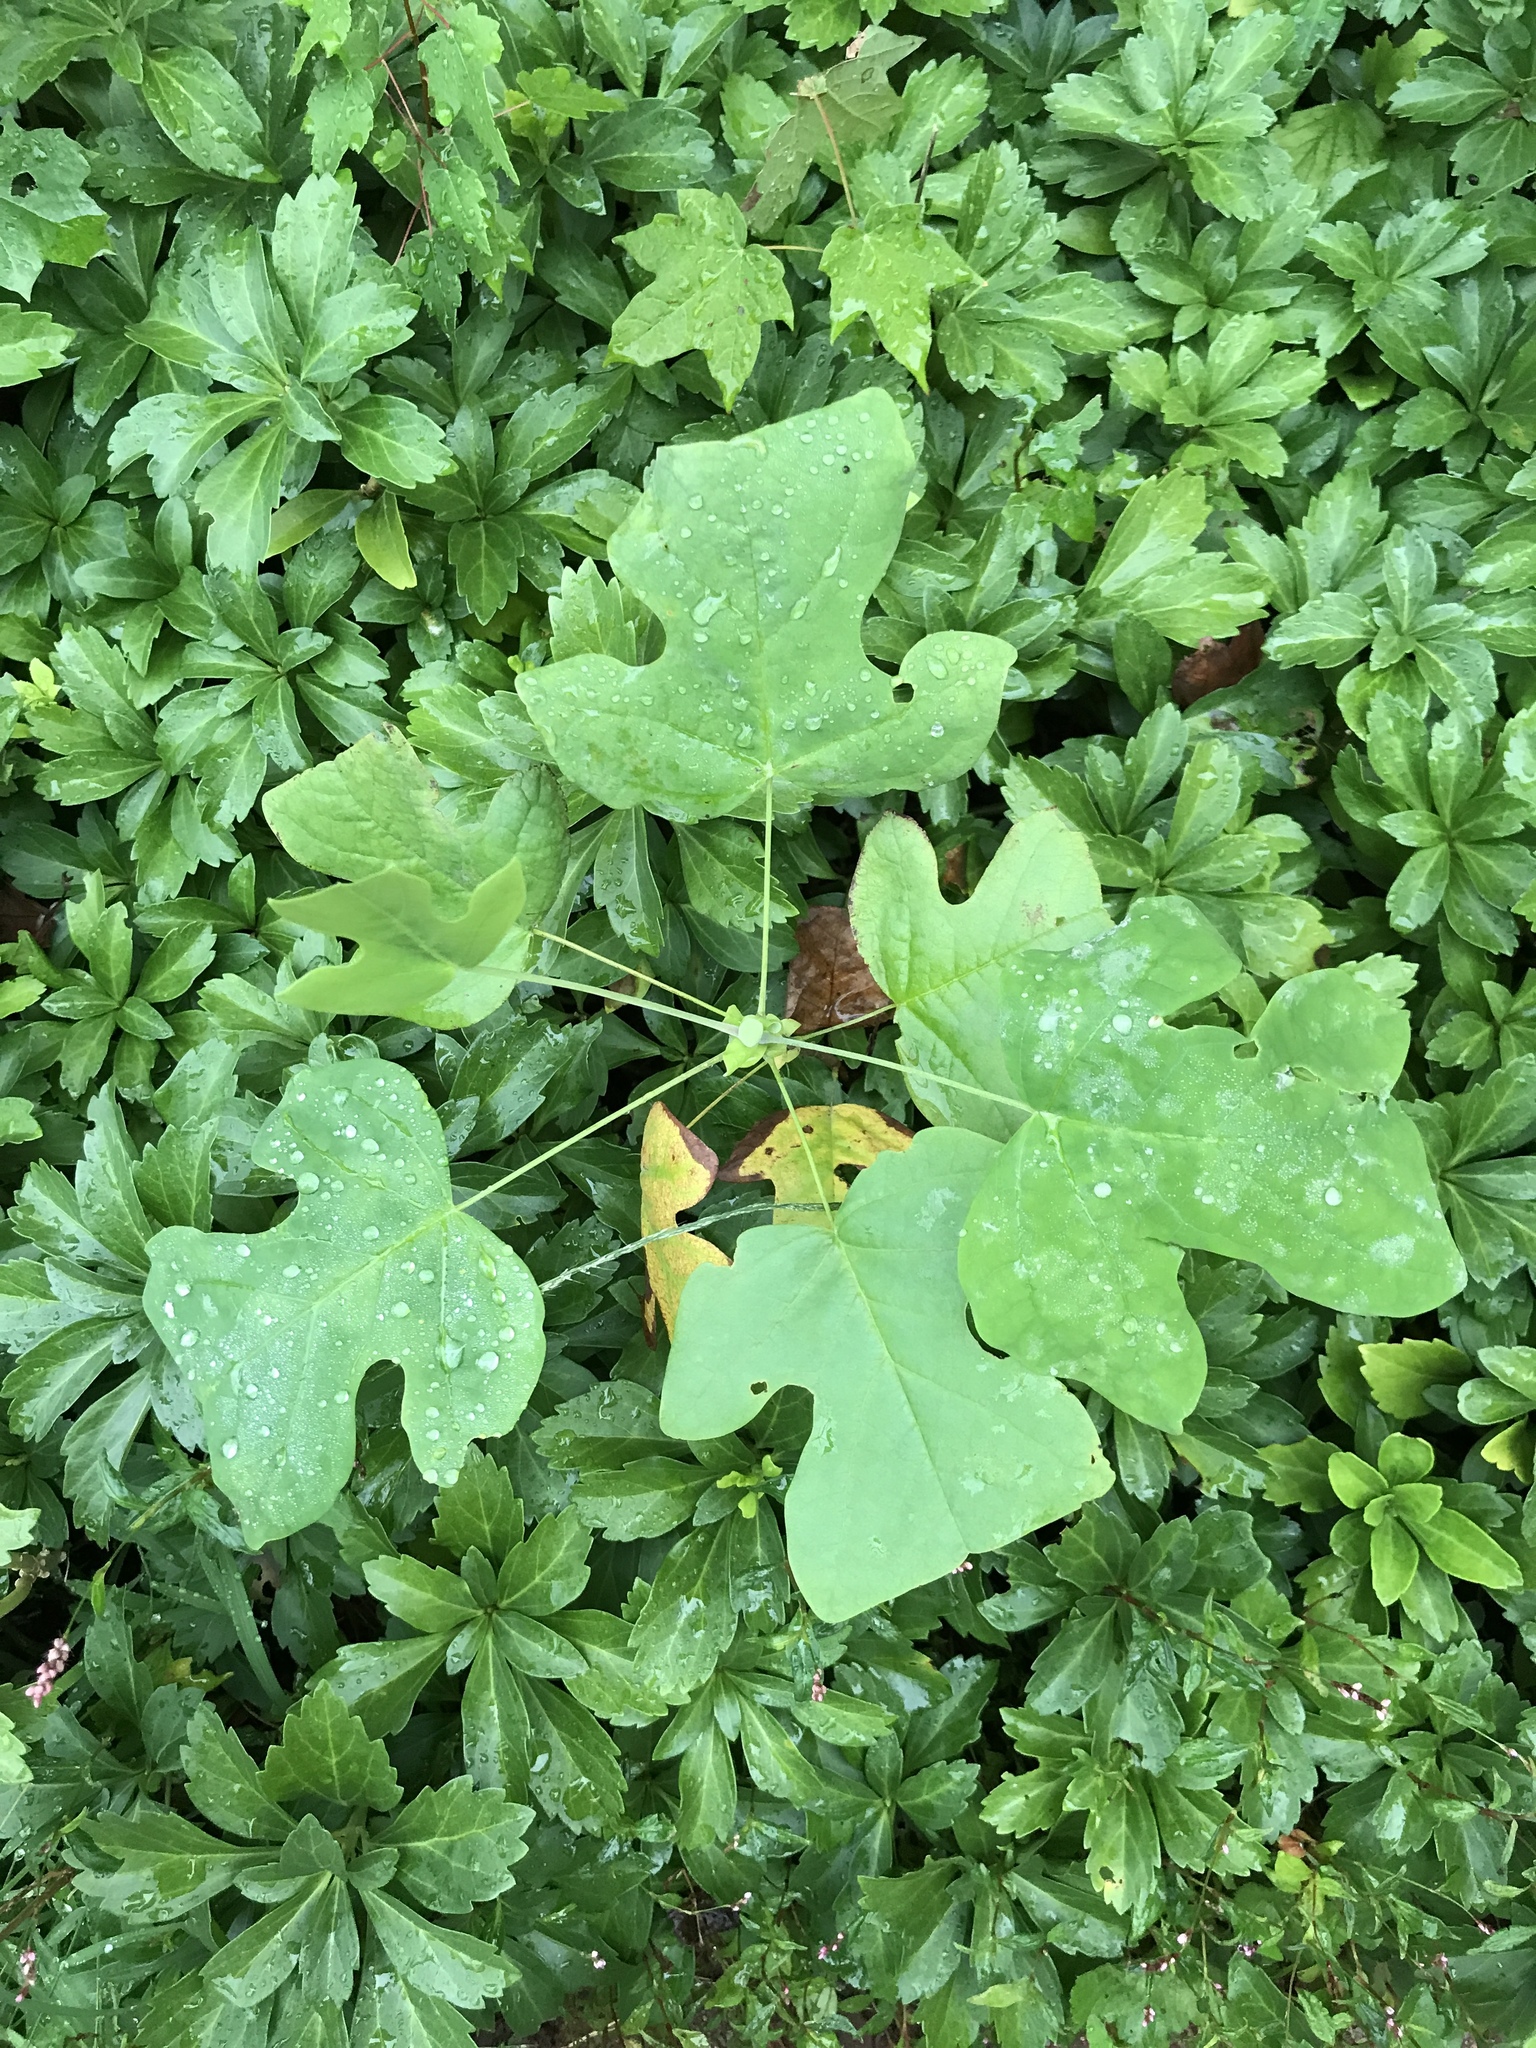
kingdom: Plantae
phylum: Tracheophyta
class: Magnoliopsida
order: Magnoliales
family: Magnoliaceae
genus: Liriodendron
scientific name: Liriodendron tulipifera
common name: Tulip tree
